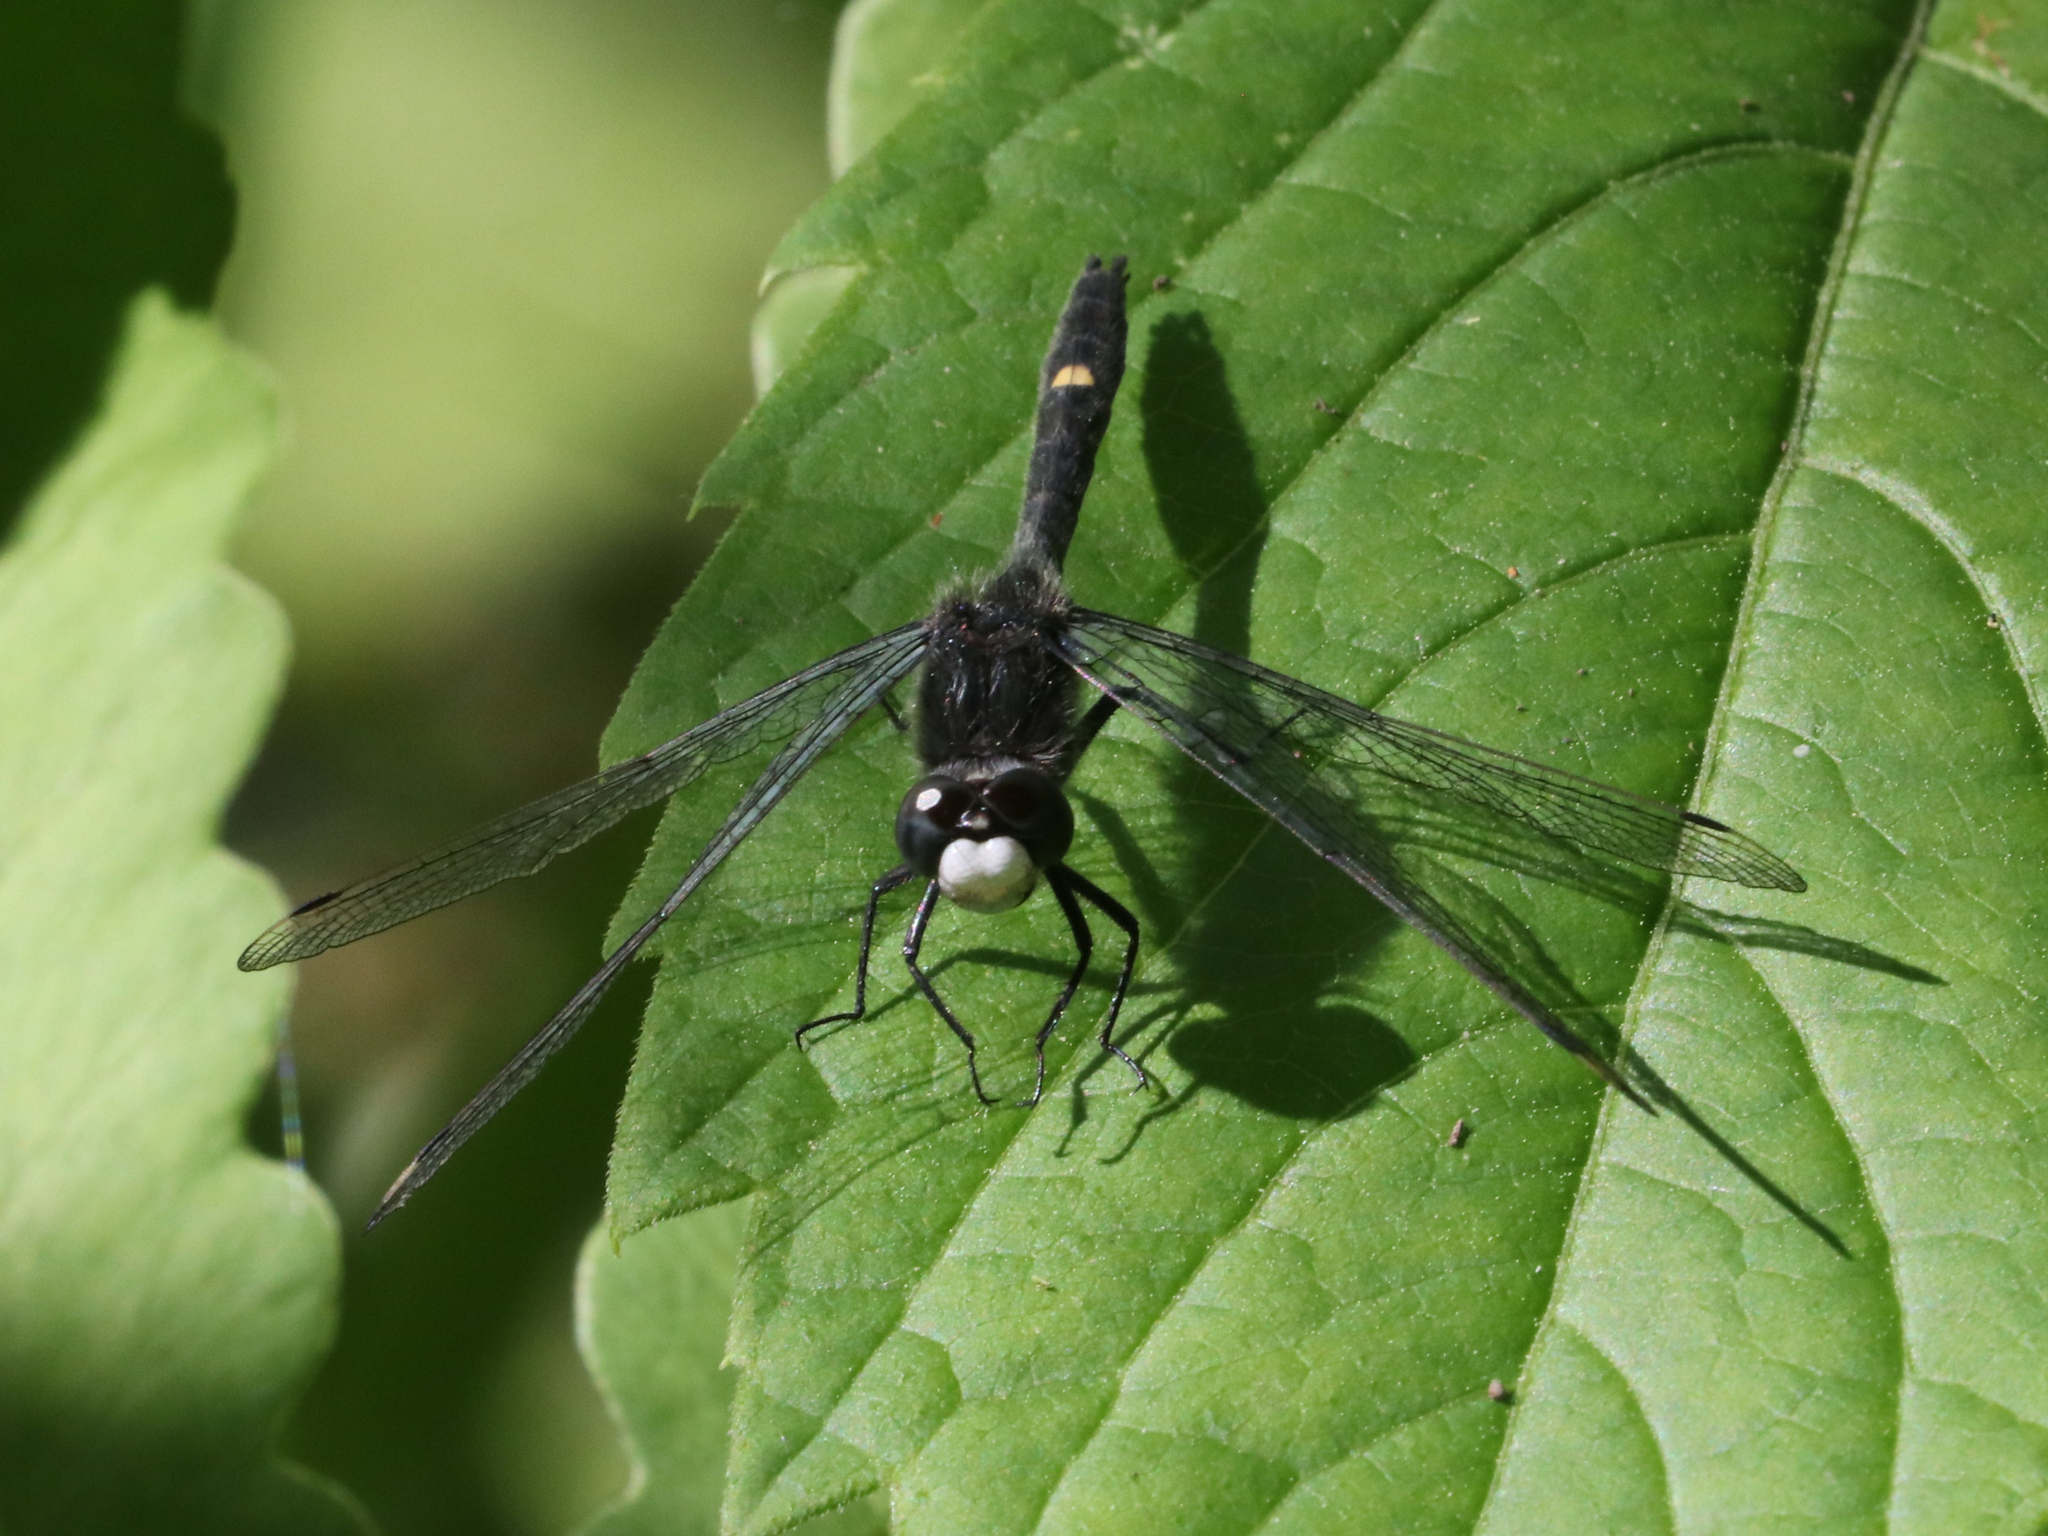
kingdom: Animalia
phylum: Arthropoda
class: Insecta
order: Odonata
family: Libellulidae
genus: Leucorrhinia
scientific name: Leucorrhinia intacta
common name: Dot-tailed whiteface
